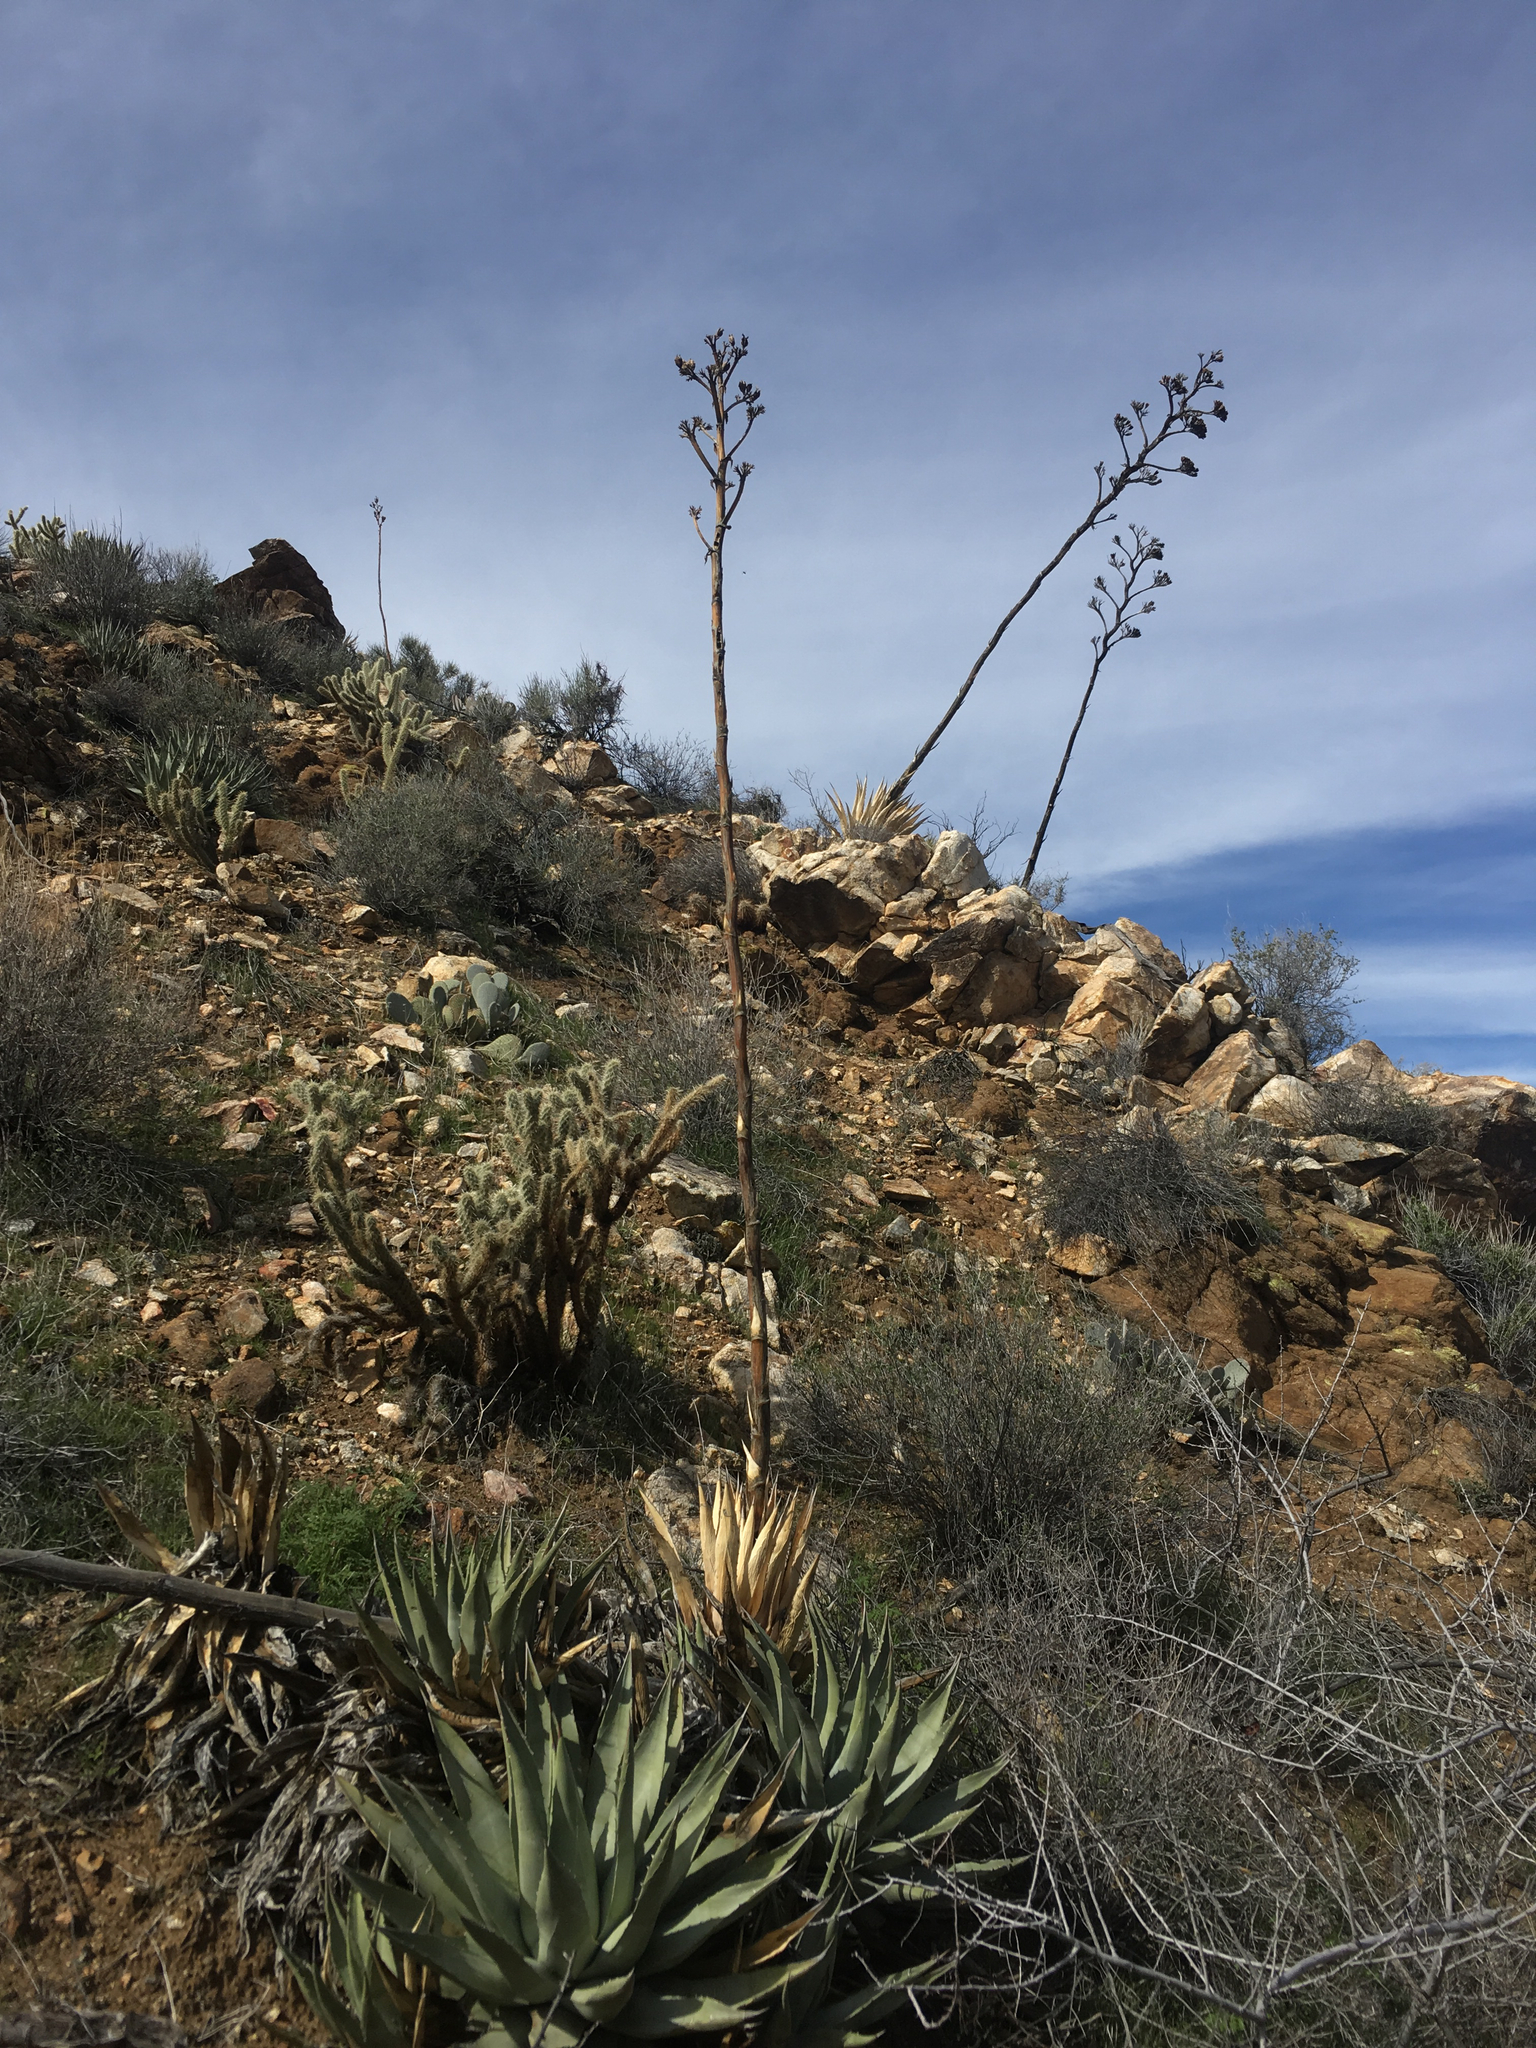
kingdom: Plantae
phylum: Tracheophyta
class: Liliopsida
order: Asparagales
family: Asparagaceae
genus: Agave
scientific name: Agave deserti
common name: Desert agave
